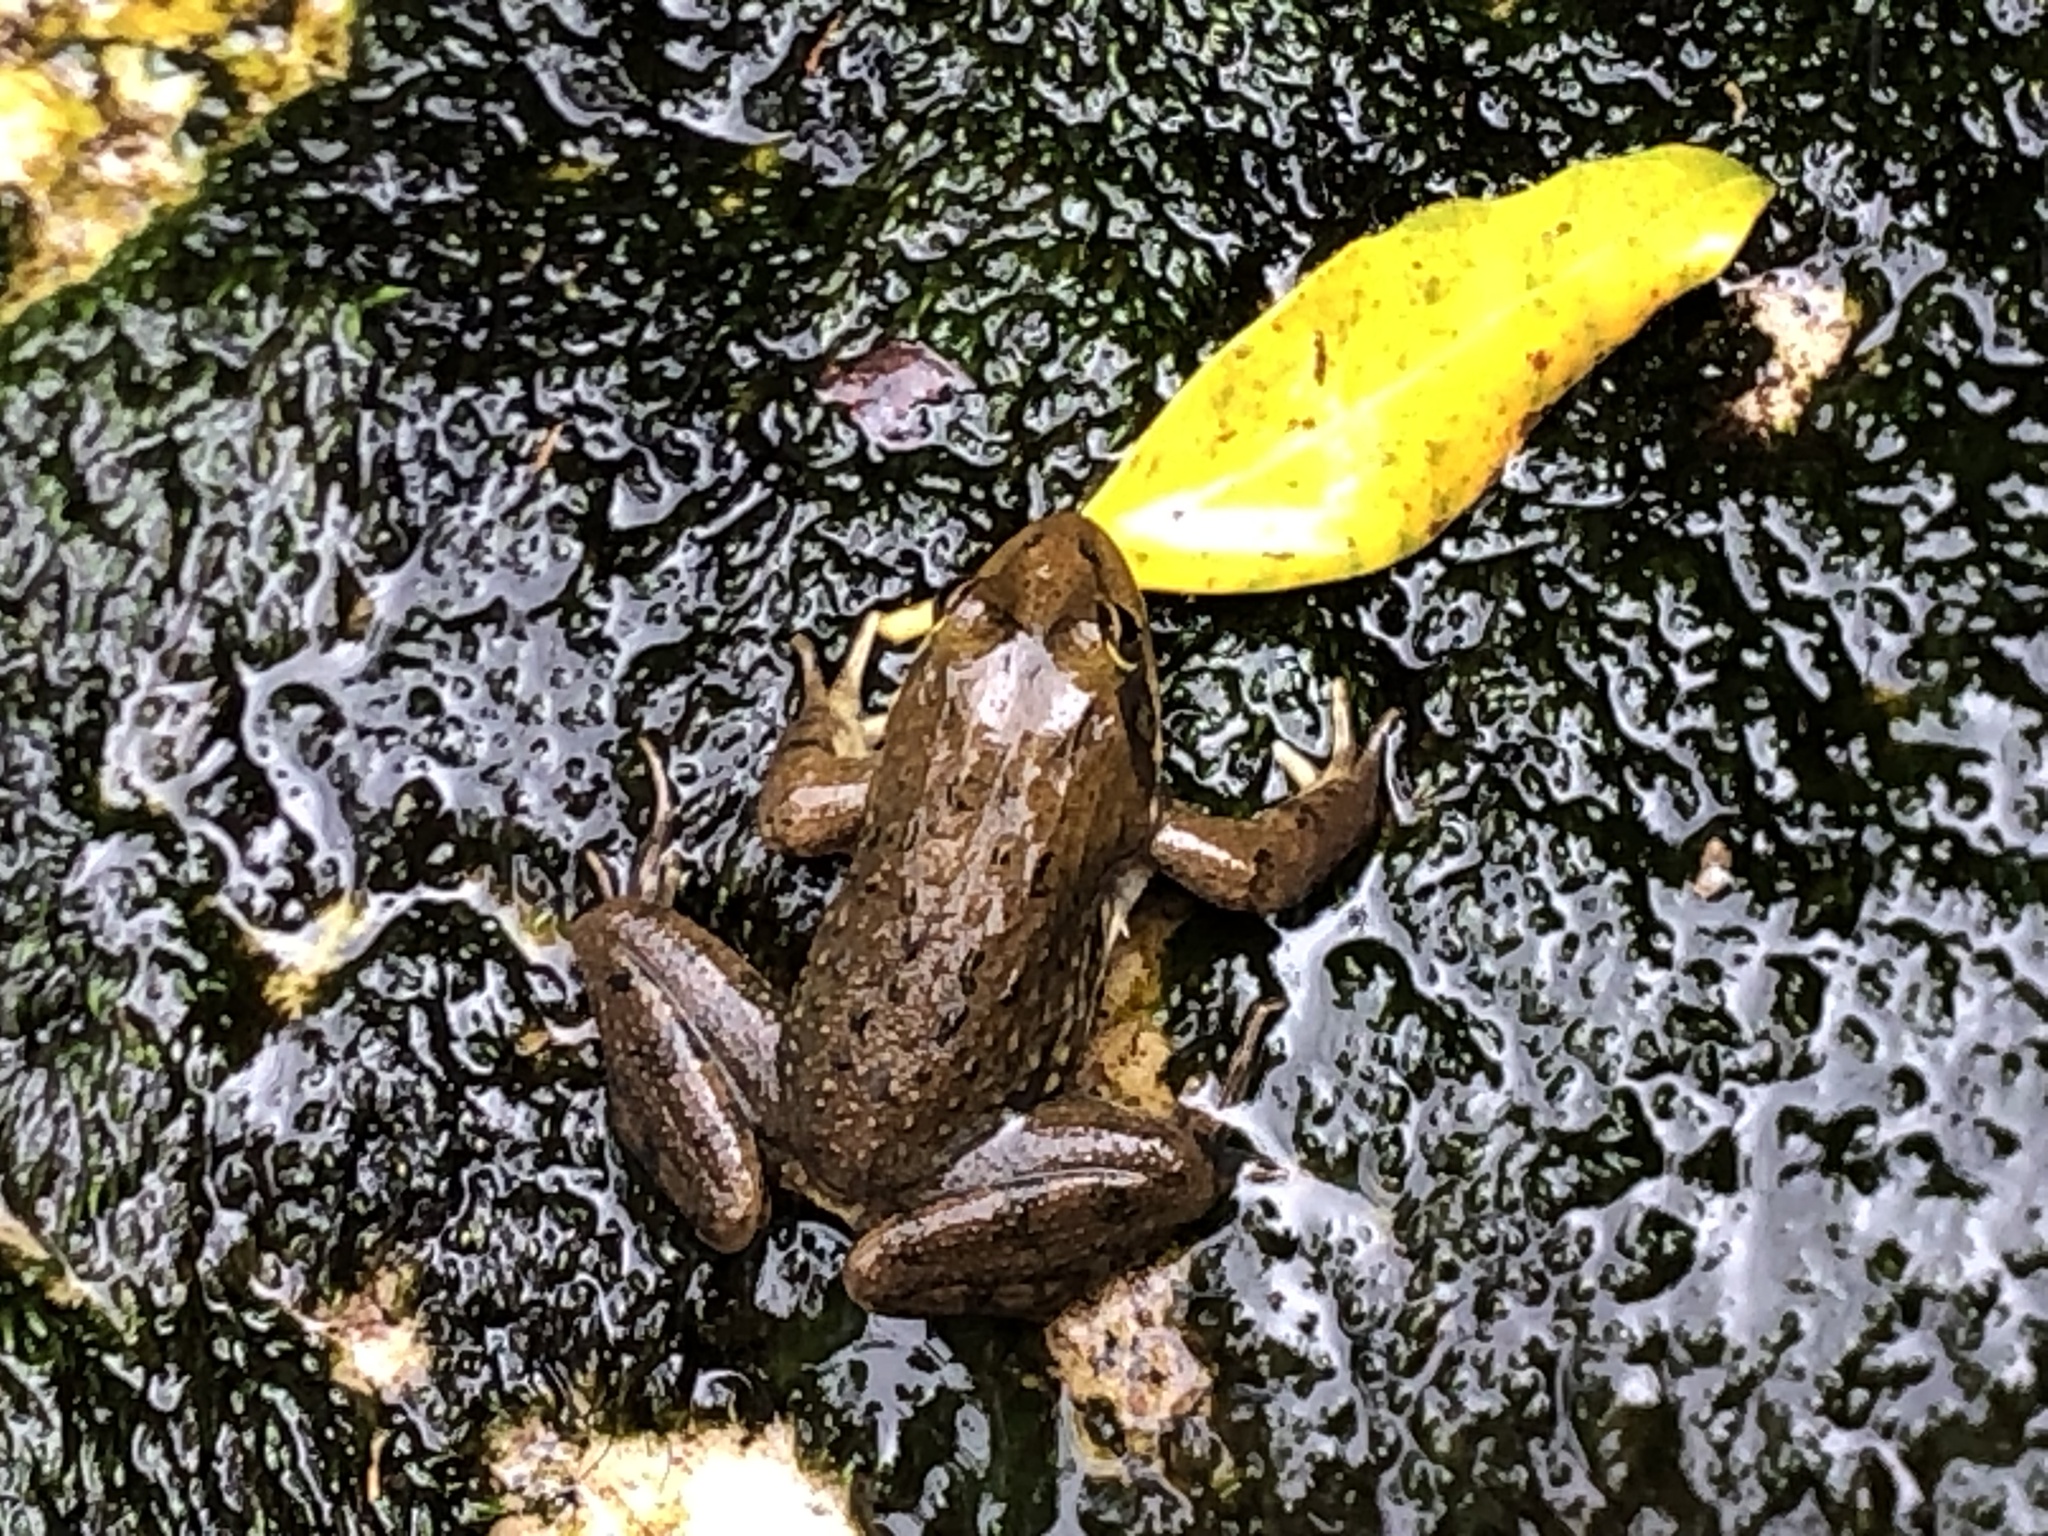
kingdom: Animalia
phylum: Chordata
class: Amphibia
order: Anura
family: Pyxicephalidae
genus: Amietia
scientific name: Amietia fuscigula
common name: Cape rana
